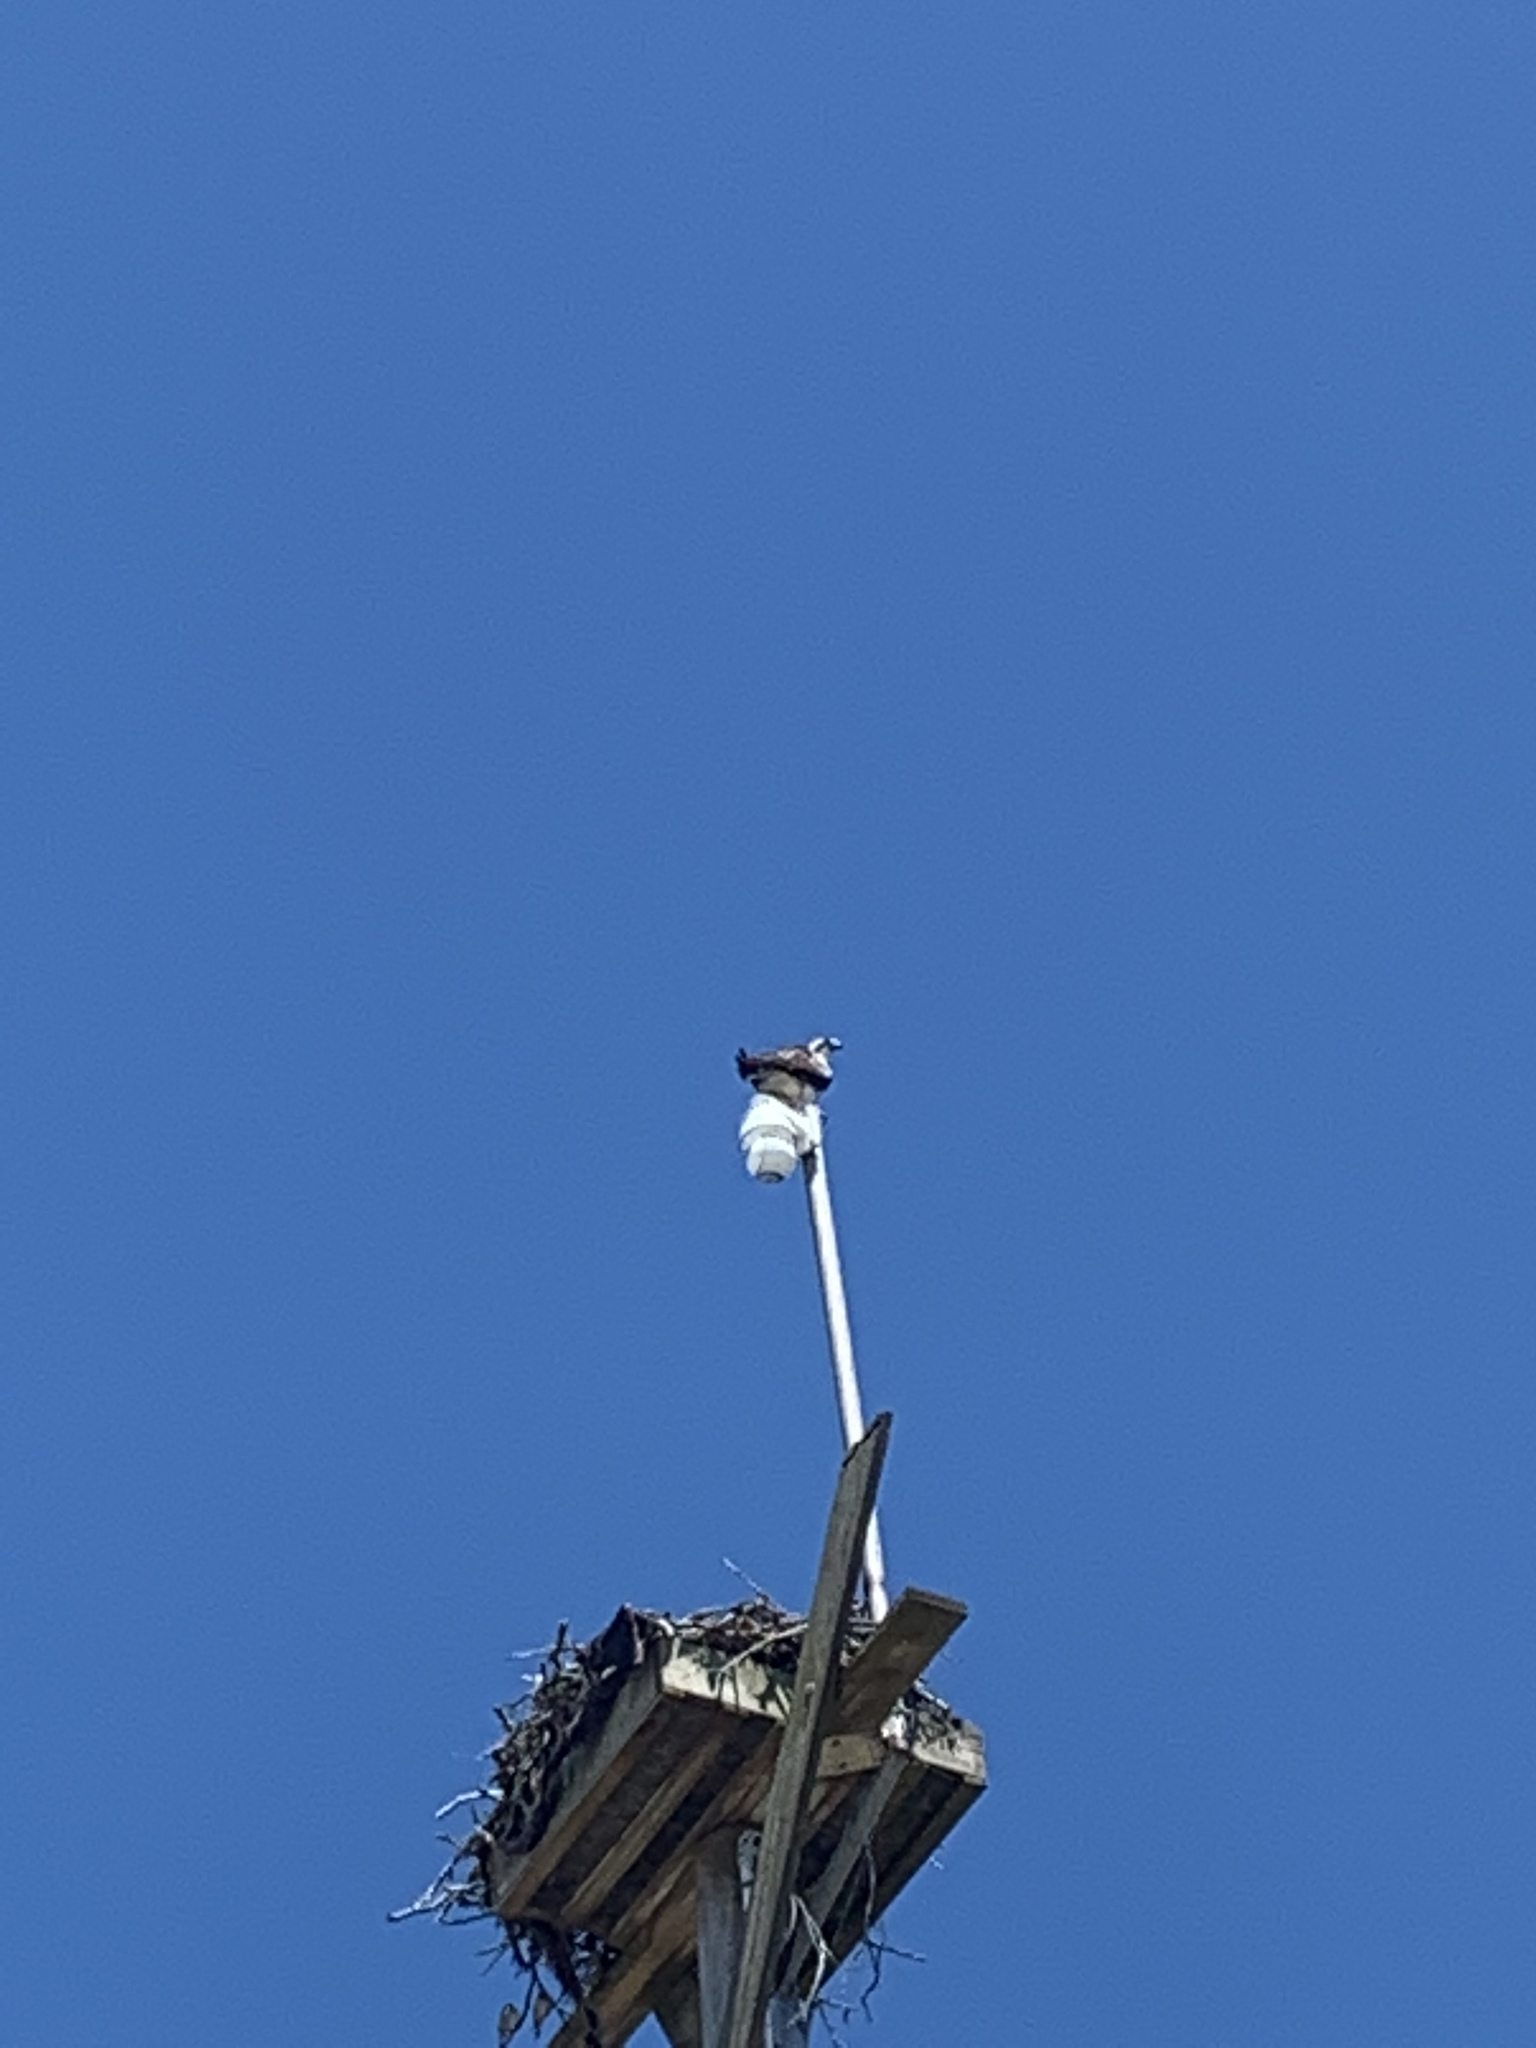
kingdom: Animalia
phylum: Chordata
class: Aves
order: Accipitriformes
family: Pandionidae
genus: Pandion
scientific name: Pandion haliaetus
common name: Osprey
